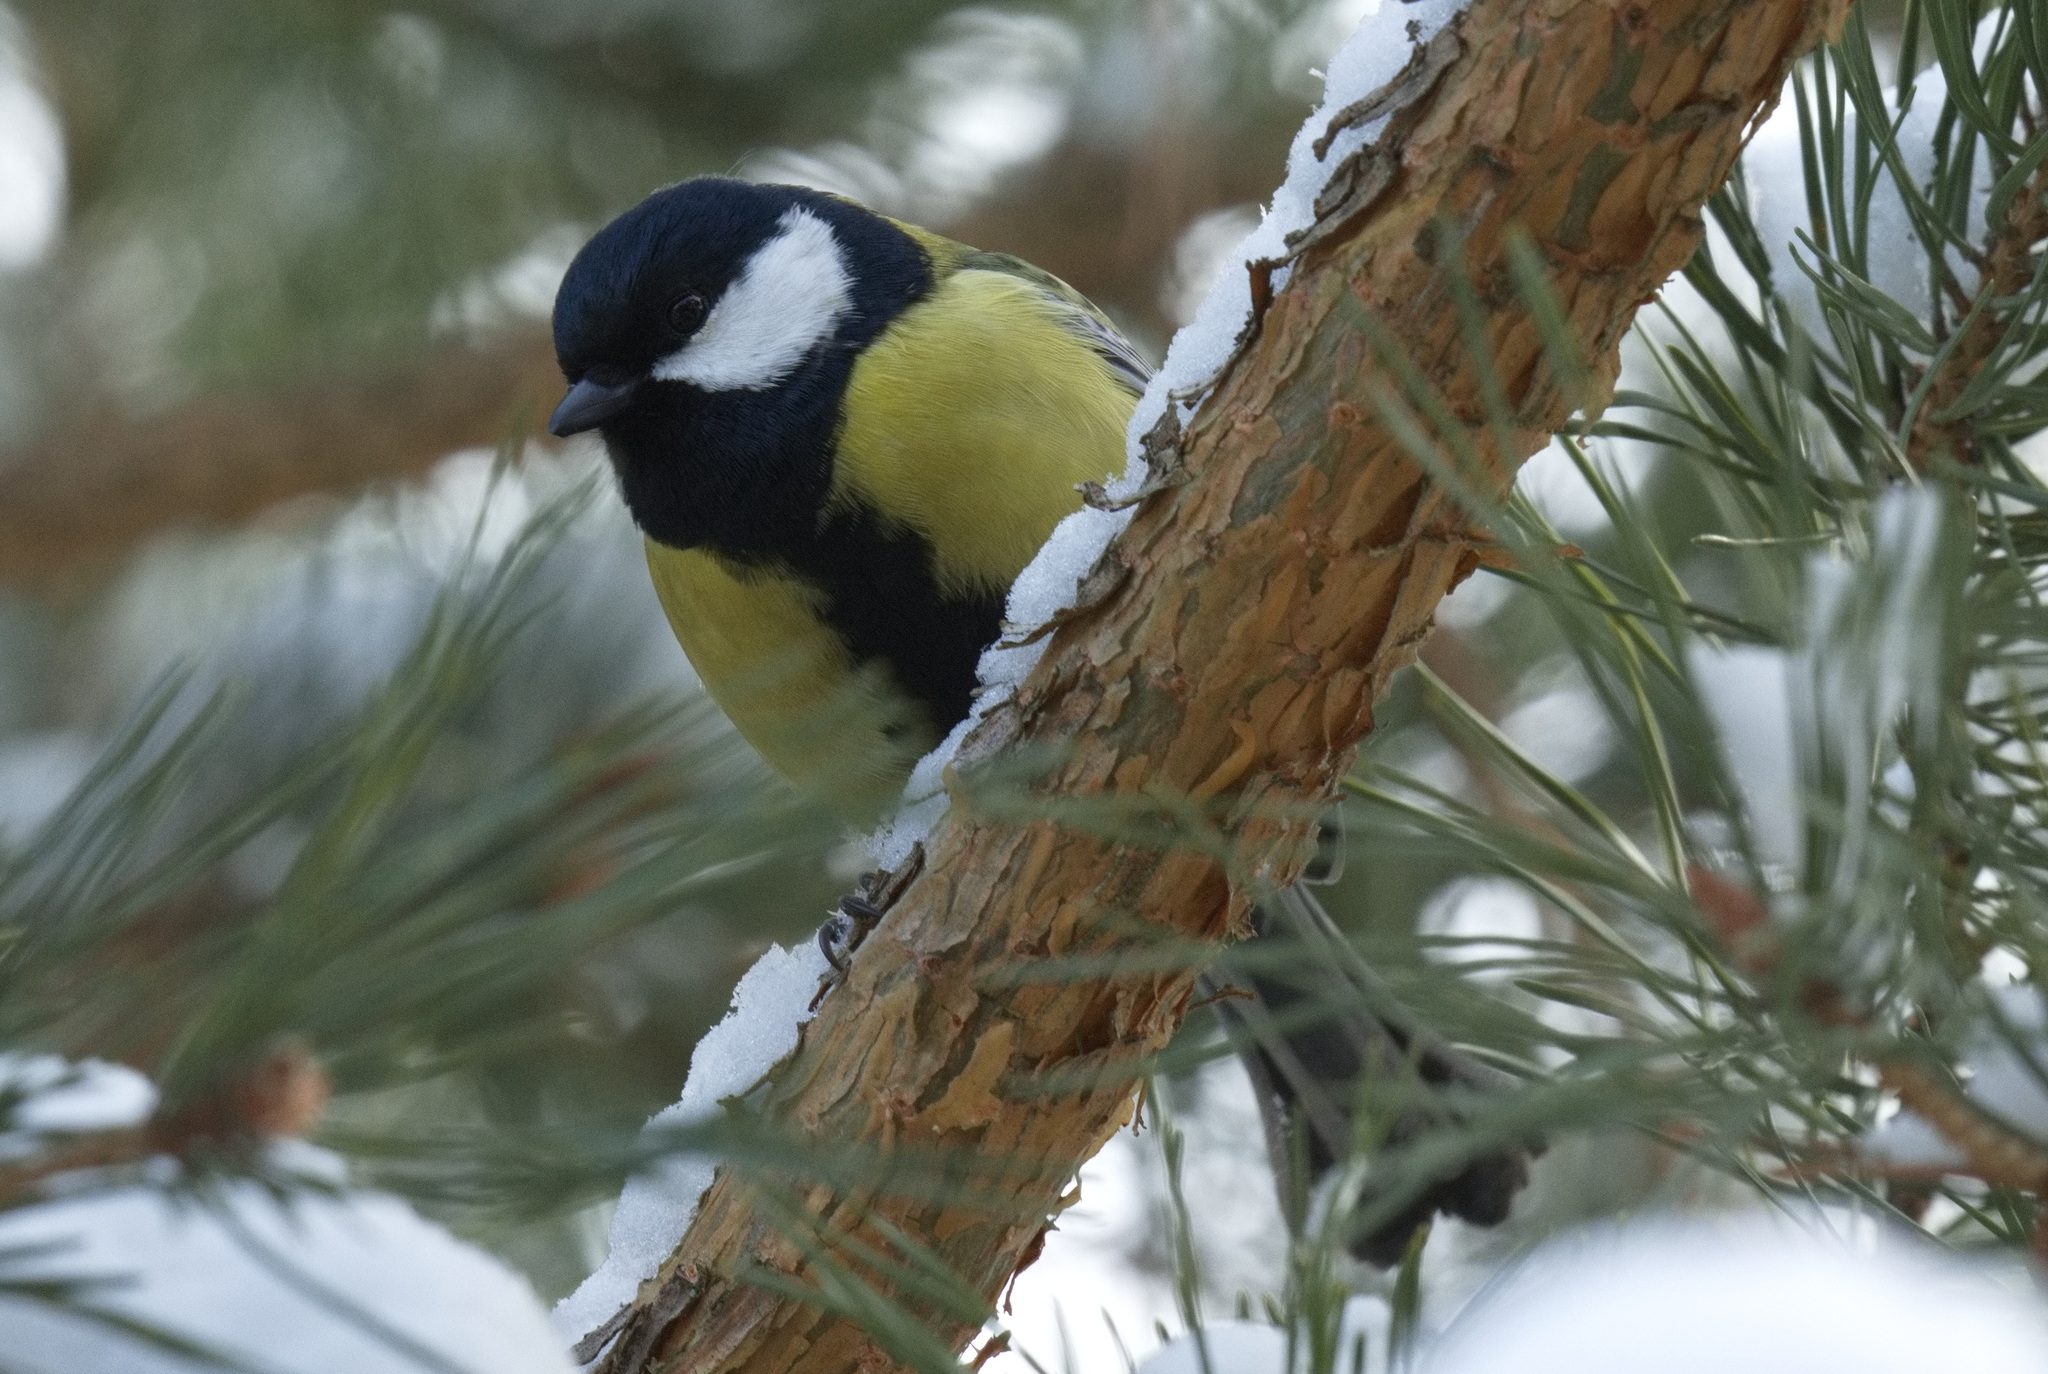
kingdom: Animalia
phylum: Chordata
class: Aves
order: Passeriformes
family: Paridae
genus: Parus
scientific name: Parus major
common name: Great tit
